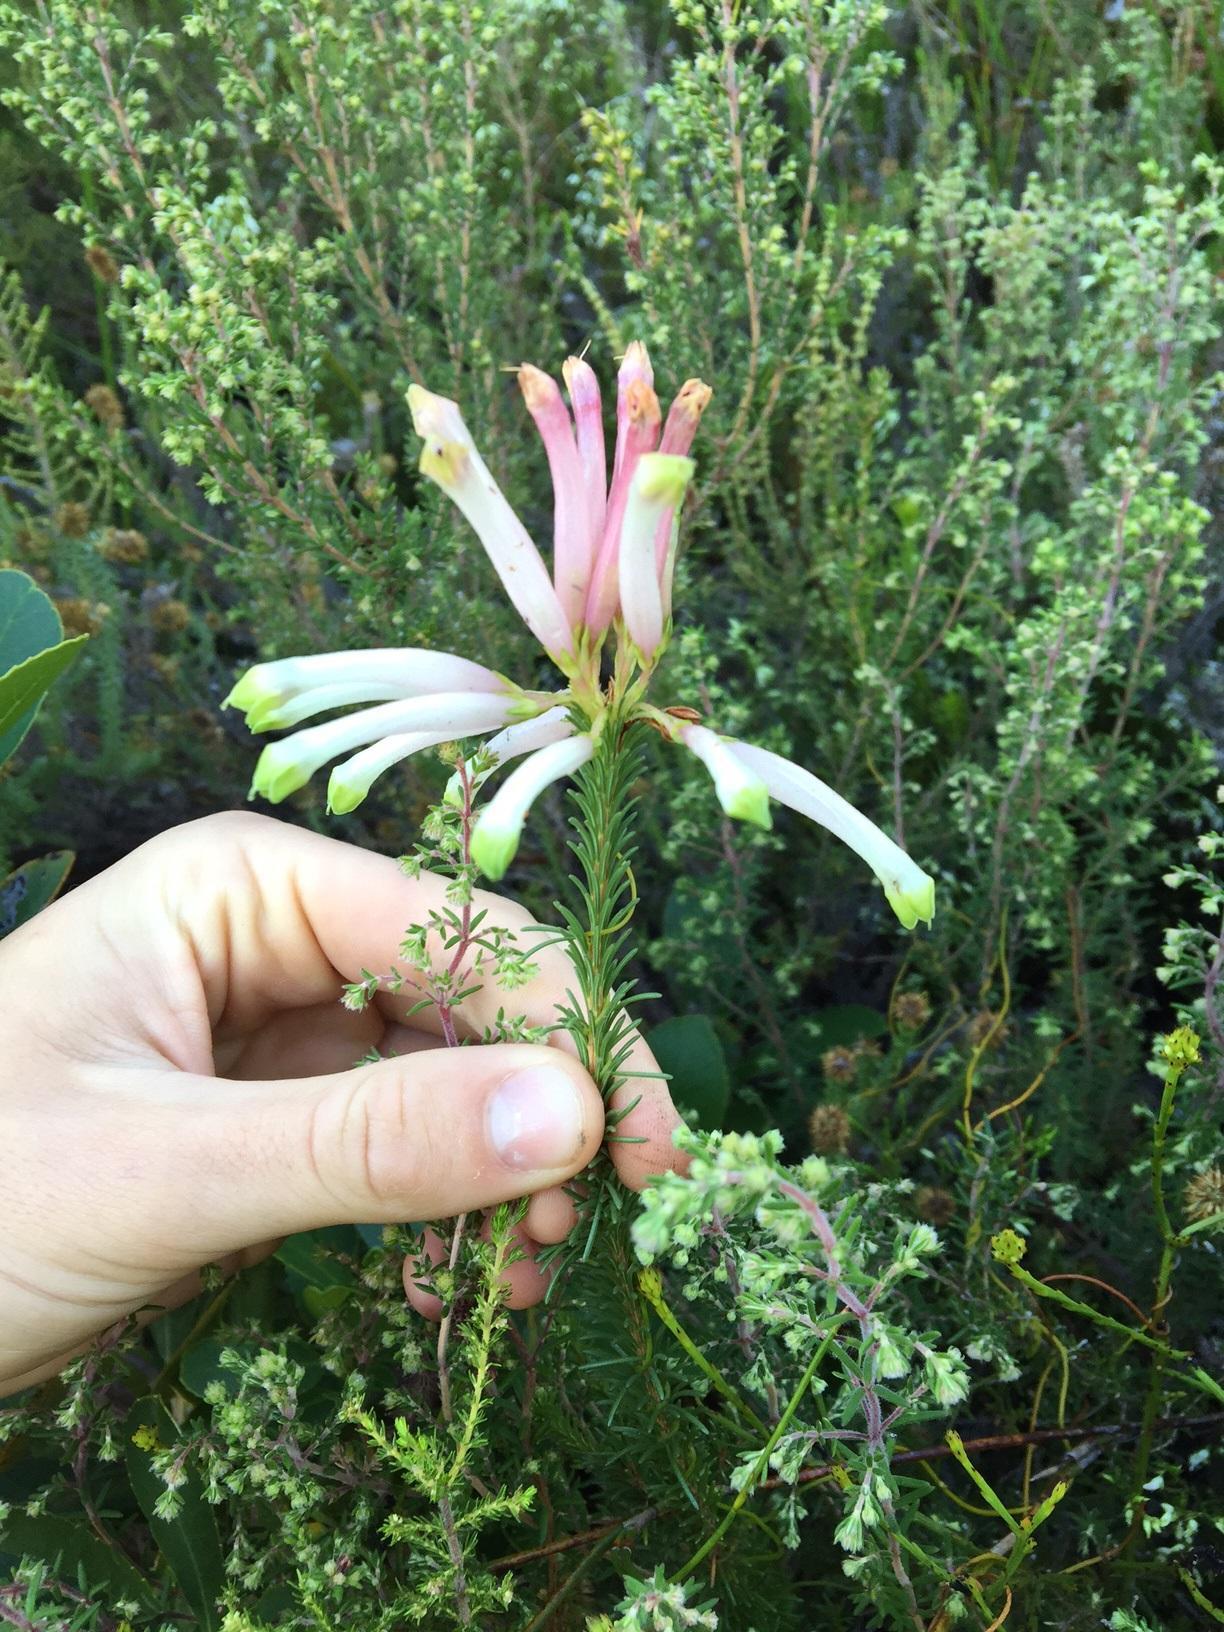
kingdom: Plantae
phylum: Tracheophyta
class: Magnoliopsida
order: Ericales
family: Ericaceae
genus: Erica
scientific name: Erica fascicularis
